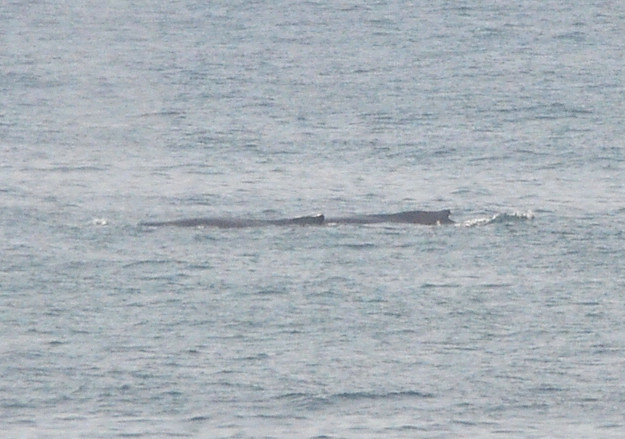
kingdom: Animalia
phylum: Chordata
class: Mammalia
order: Cetacea
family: Balaenopteridae
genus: Megaptera
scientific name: Megaptera novaeangliae
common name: Humpback whale
